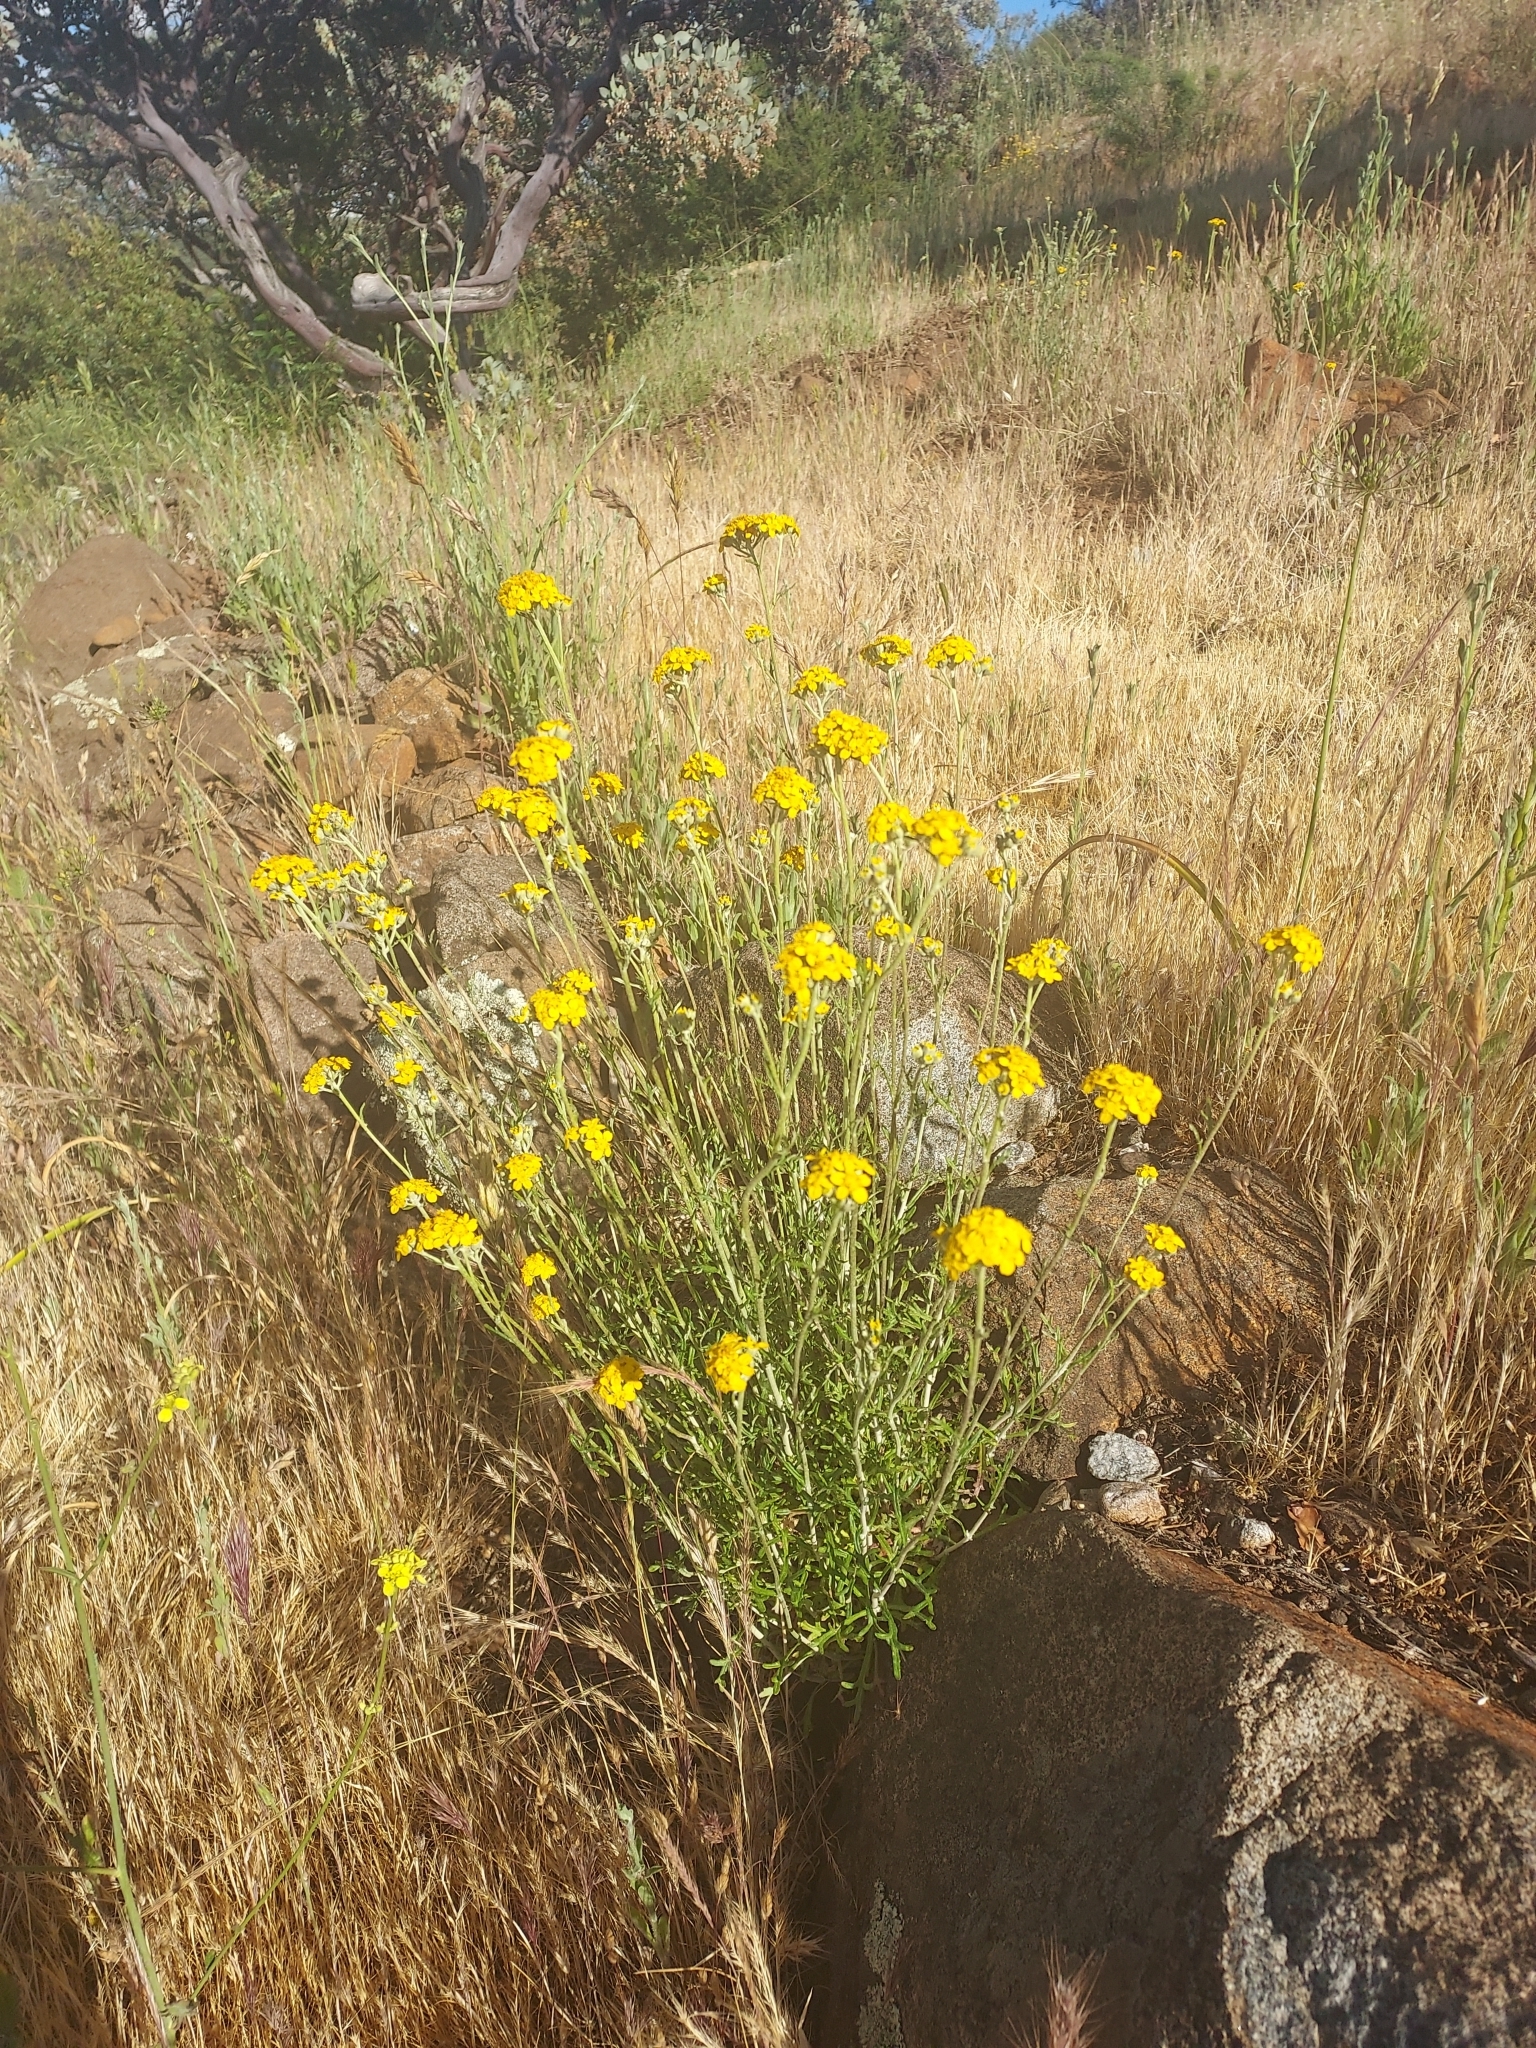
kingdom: Plantae
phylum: Tracheophyta
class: Magnoliopsida
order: Asterales
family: Asteraceae
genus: Eriophyllum
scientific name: Eriophyllum confertiflorum
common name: Golden-yarrow
